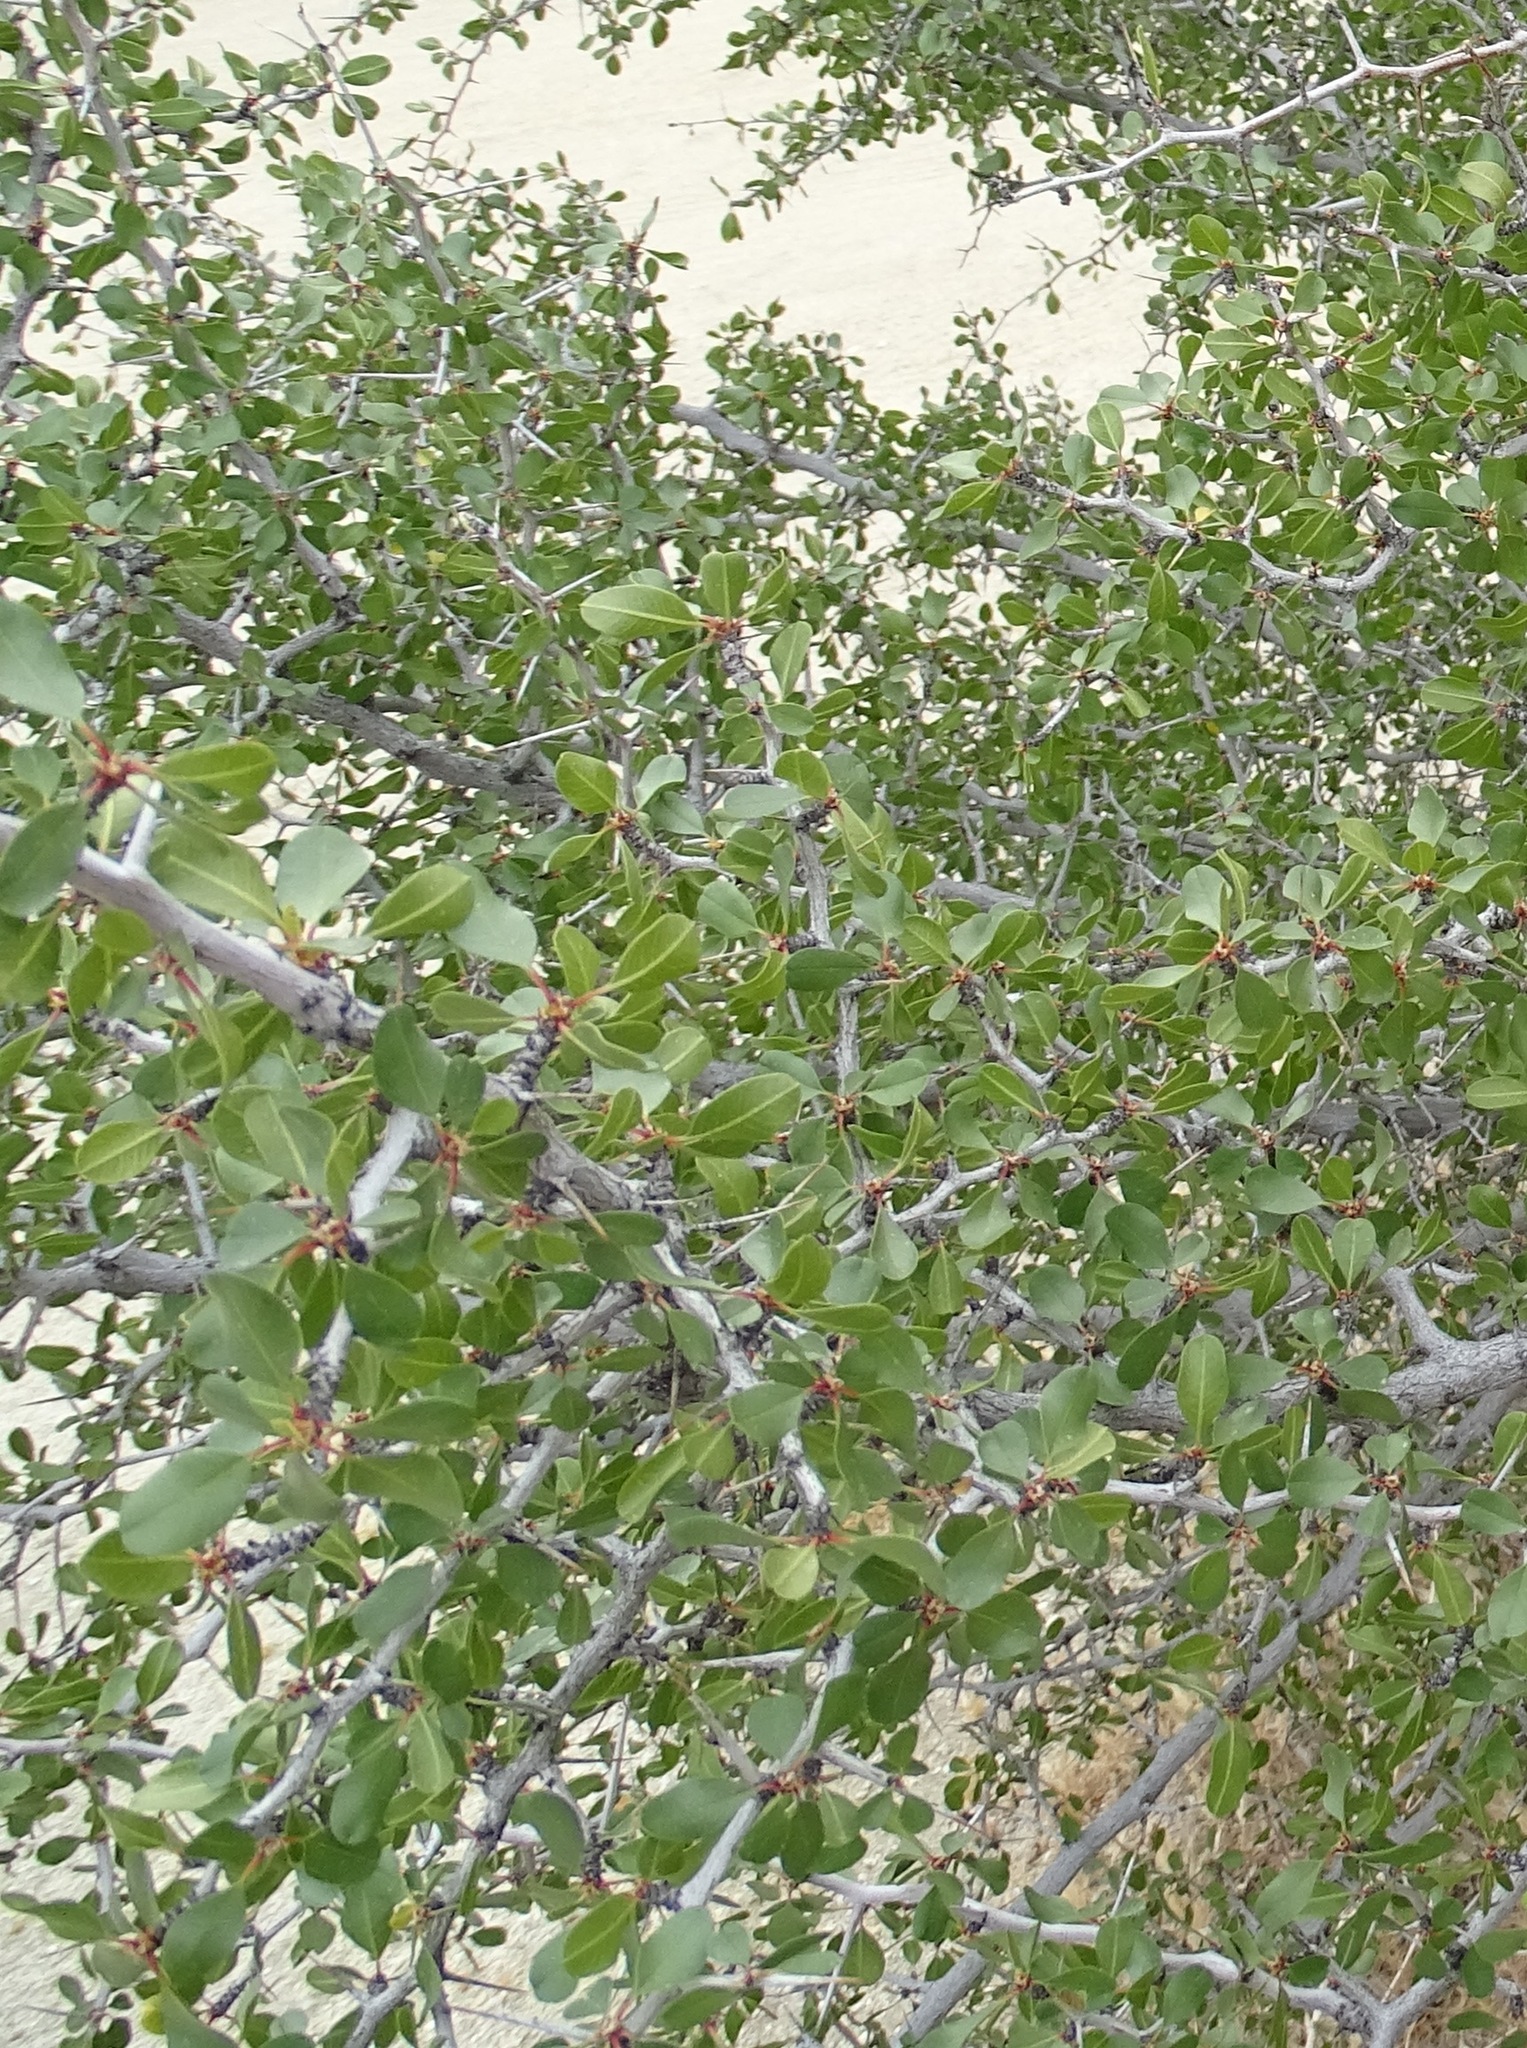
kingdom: Plantae
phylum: Tracheophyta
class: Magnoliopsida
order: Rosales
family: Rhamnaceae
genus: Pseudoziziphus
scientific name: Pseudoziziphus parryi
